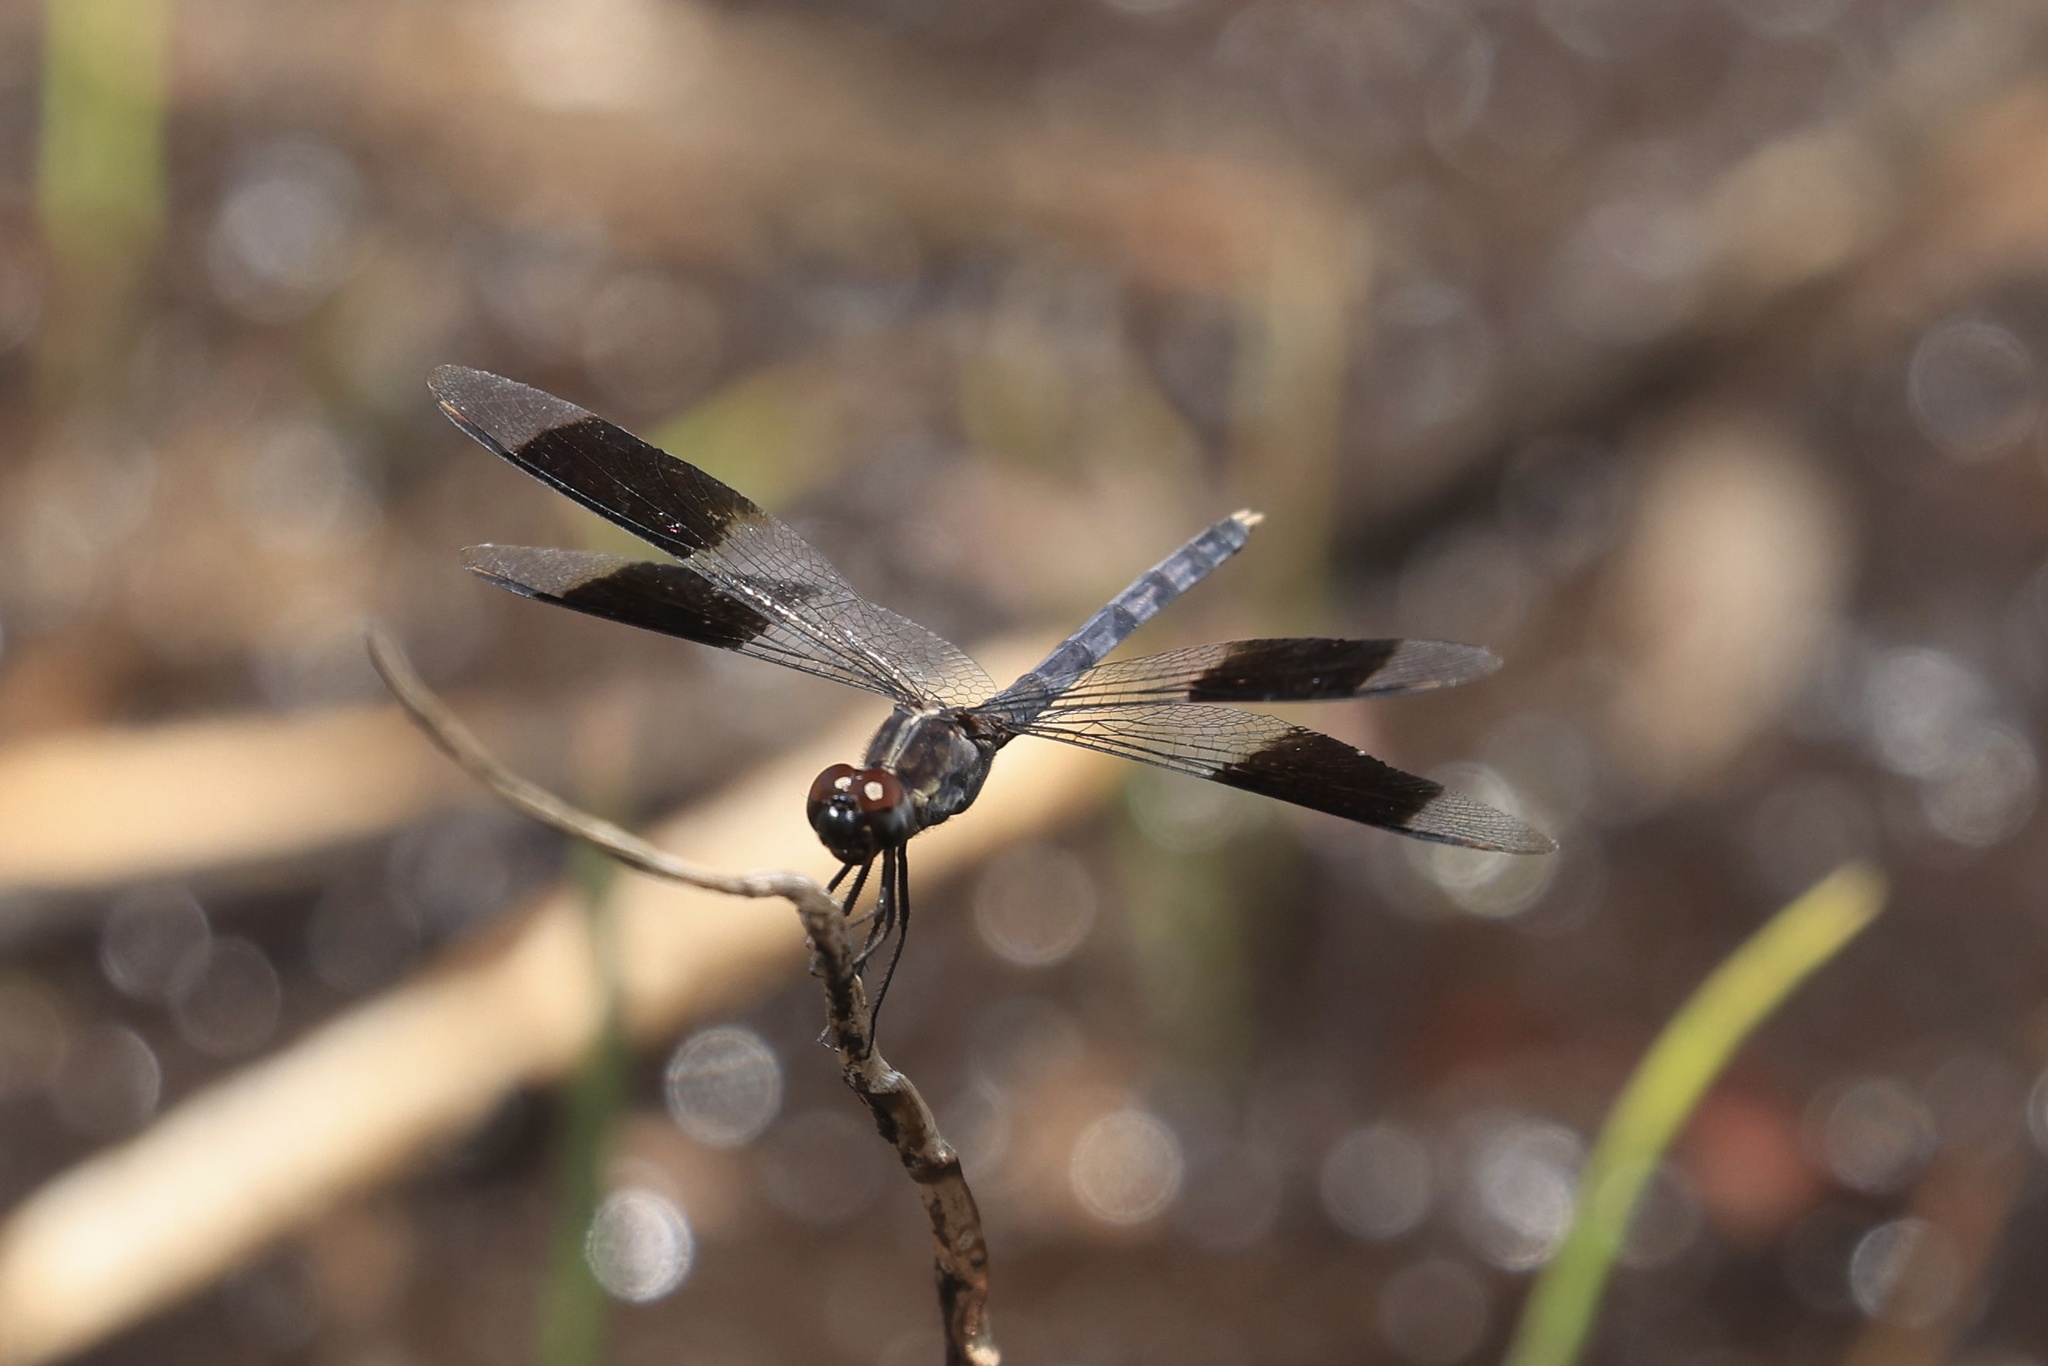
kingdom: Animalia
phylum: Arthropoda
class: Insecta
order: Odonata
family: Libellulidae
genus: Erythrodiplax
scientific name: Erythrodiplax umbrata
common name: Band-winged dragonlet
